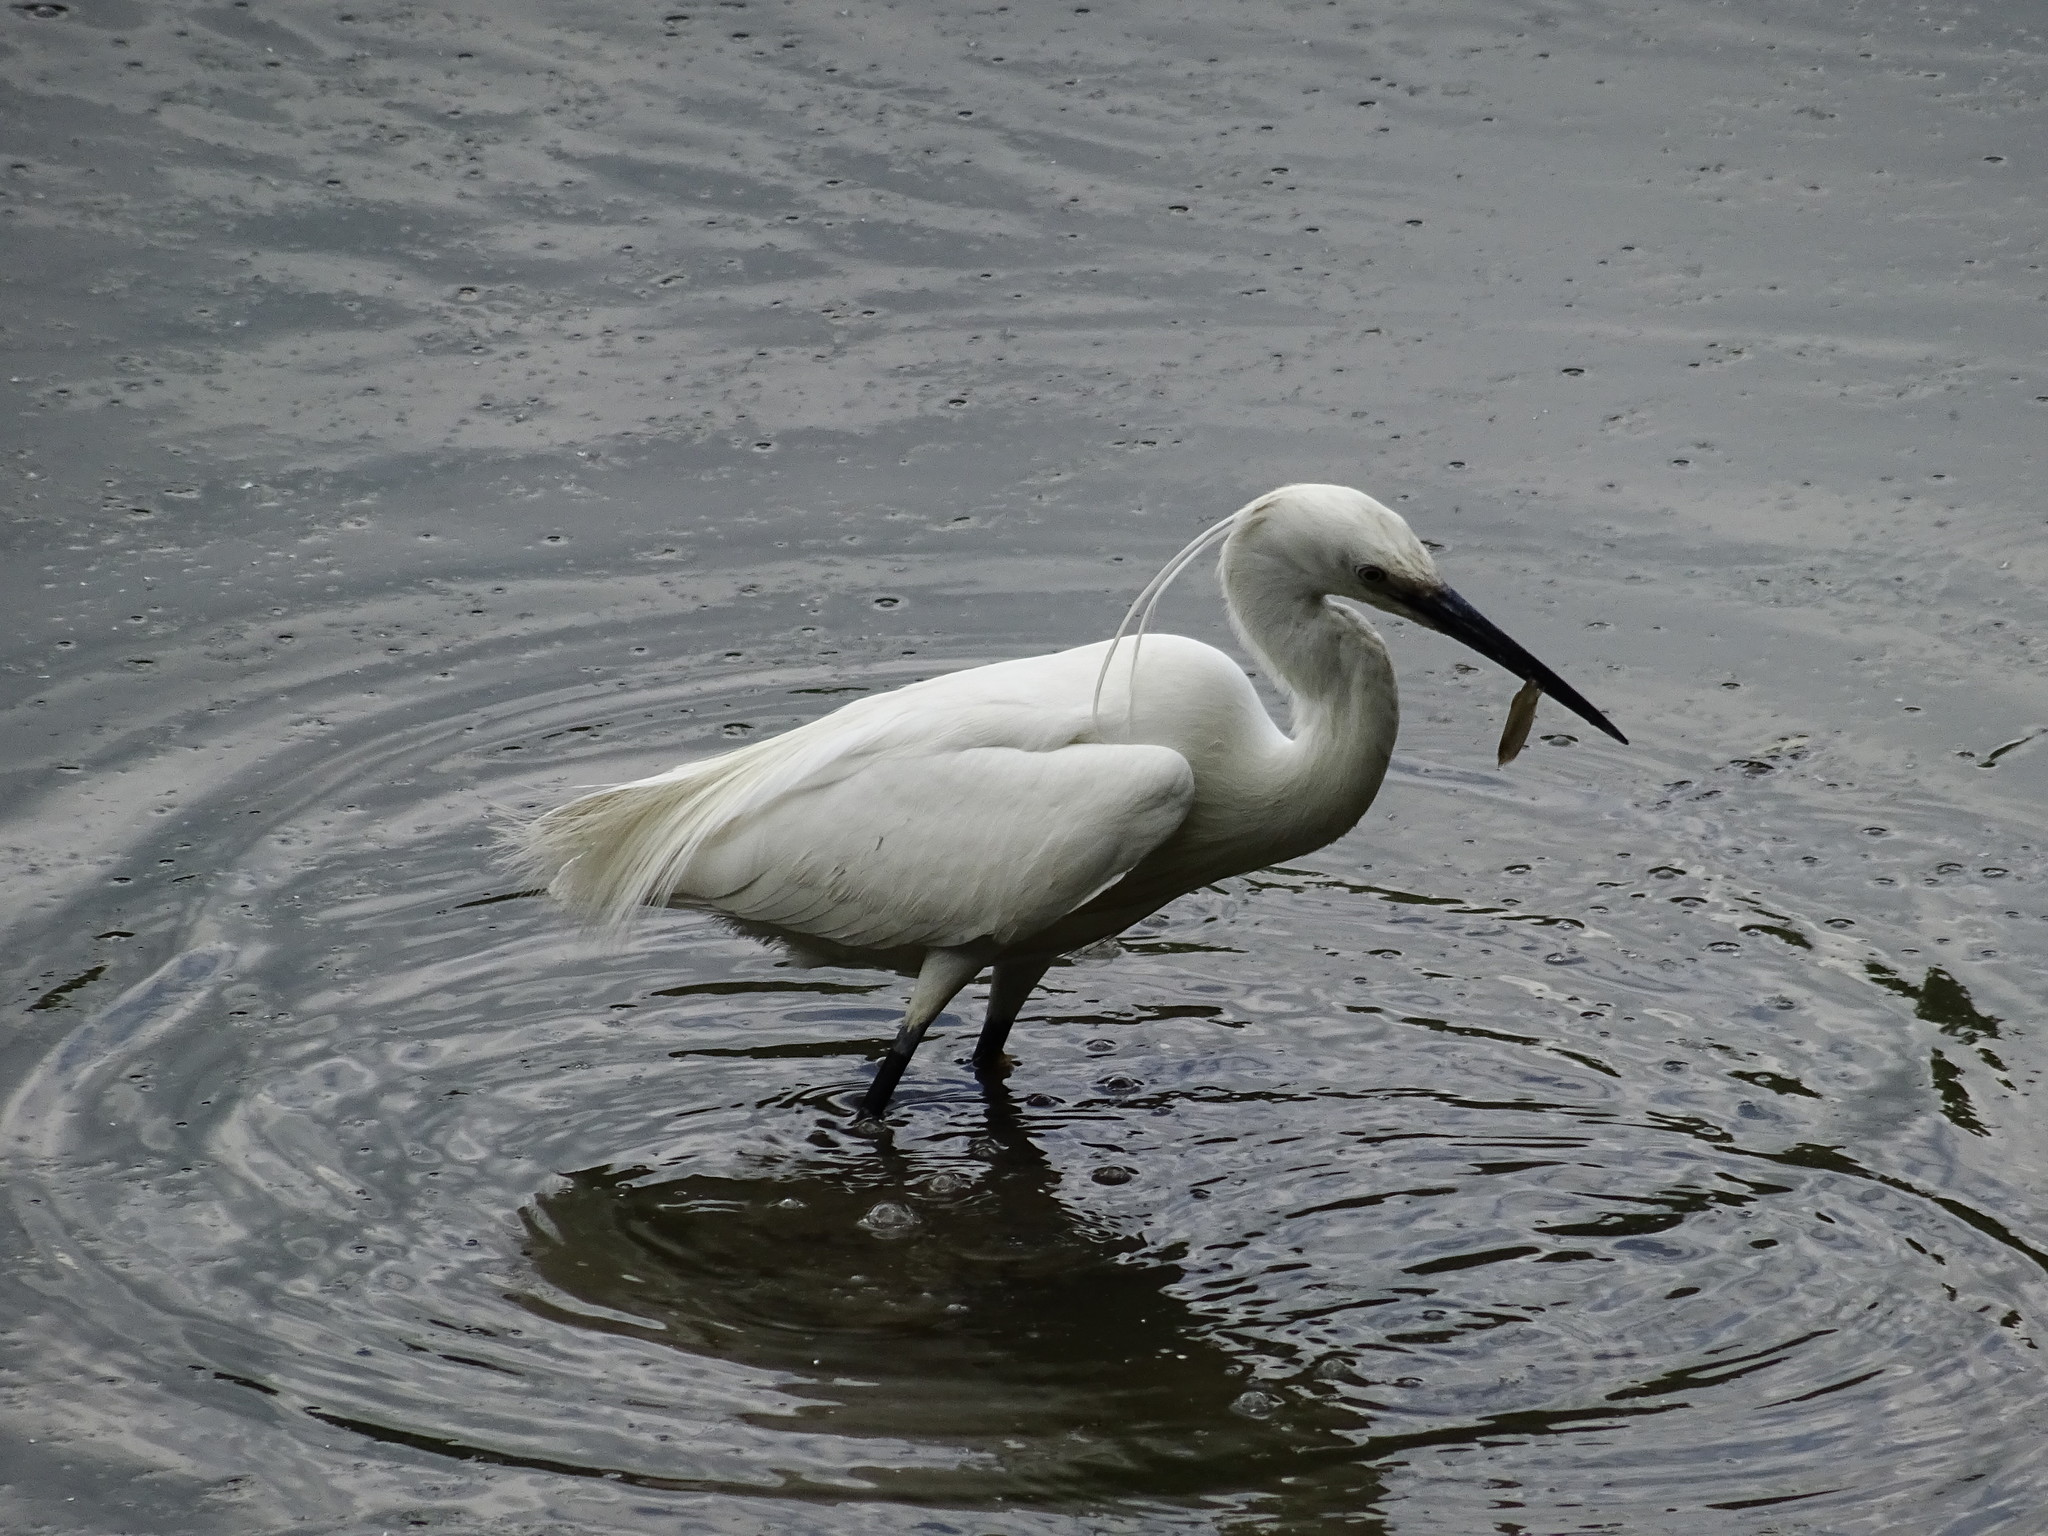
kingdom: Animalia
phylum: Chordata
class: Aves
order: Pelecaniformes
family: Ardeidae
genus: Egretta
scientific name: Egretta garzetta
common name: Little egret
